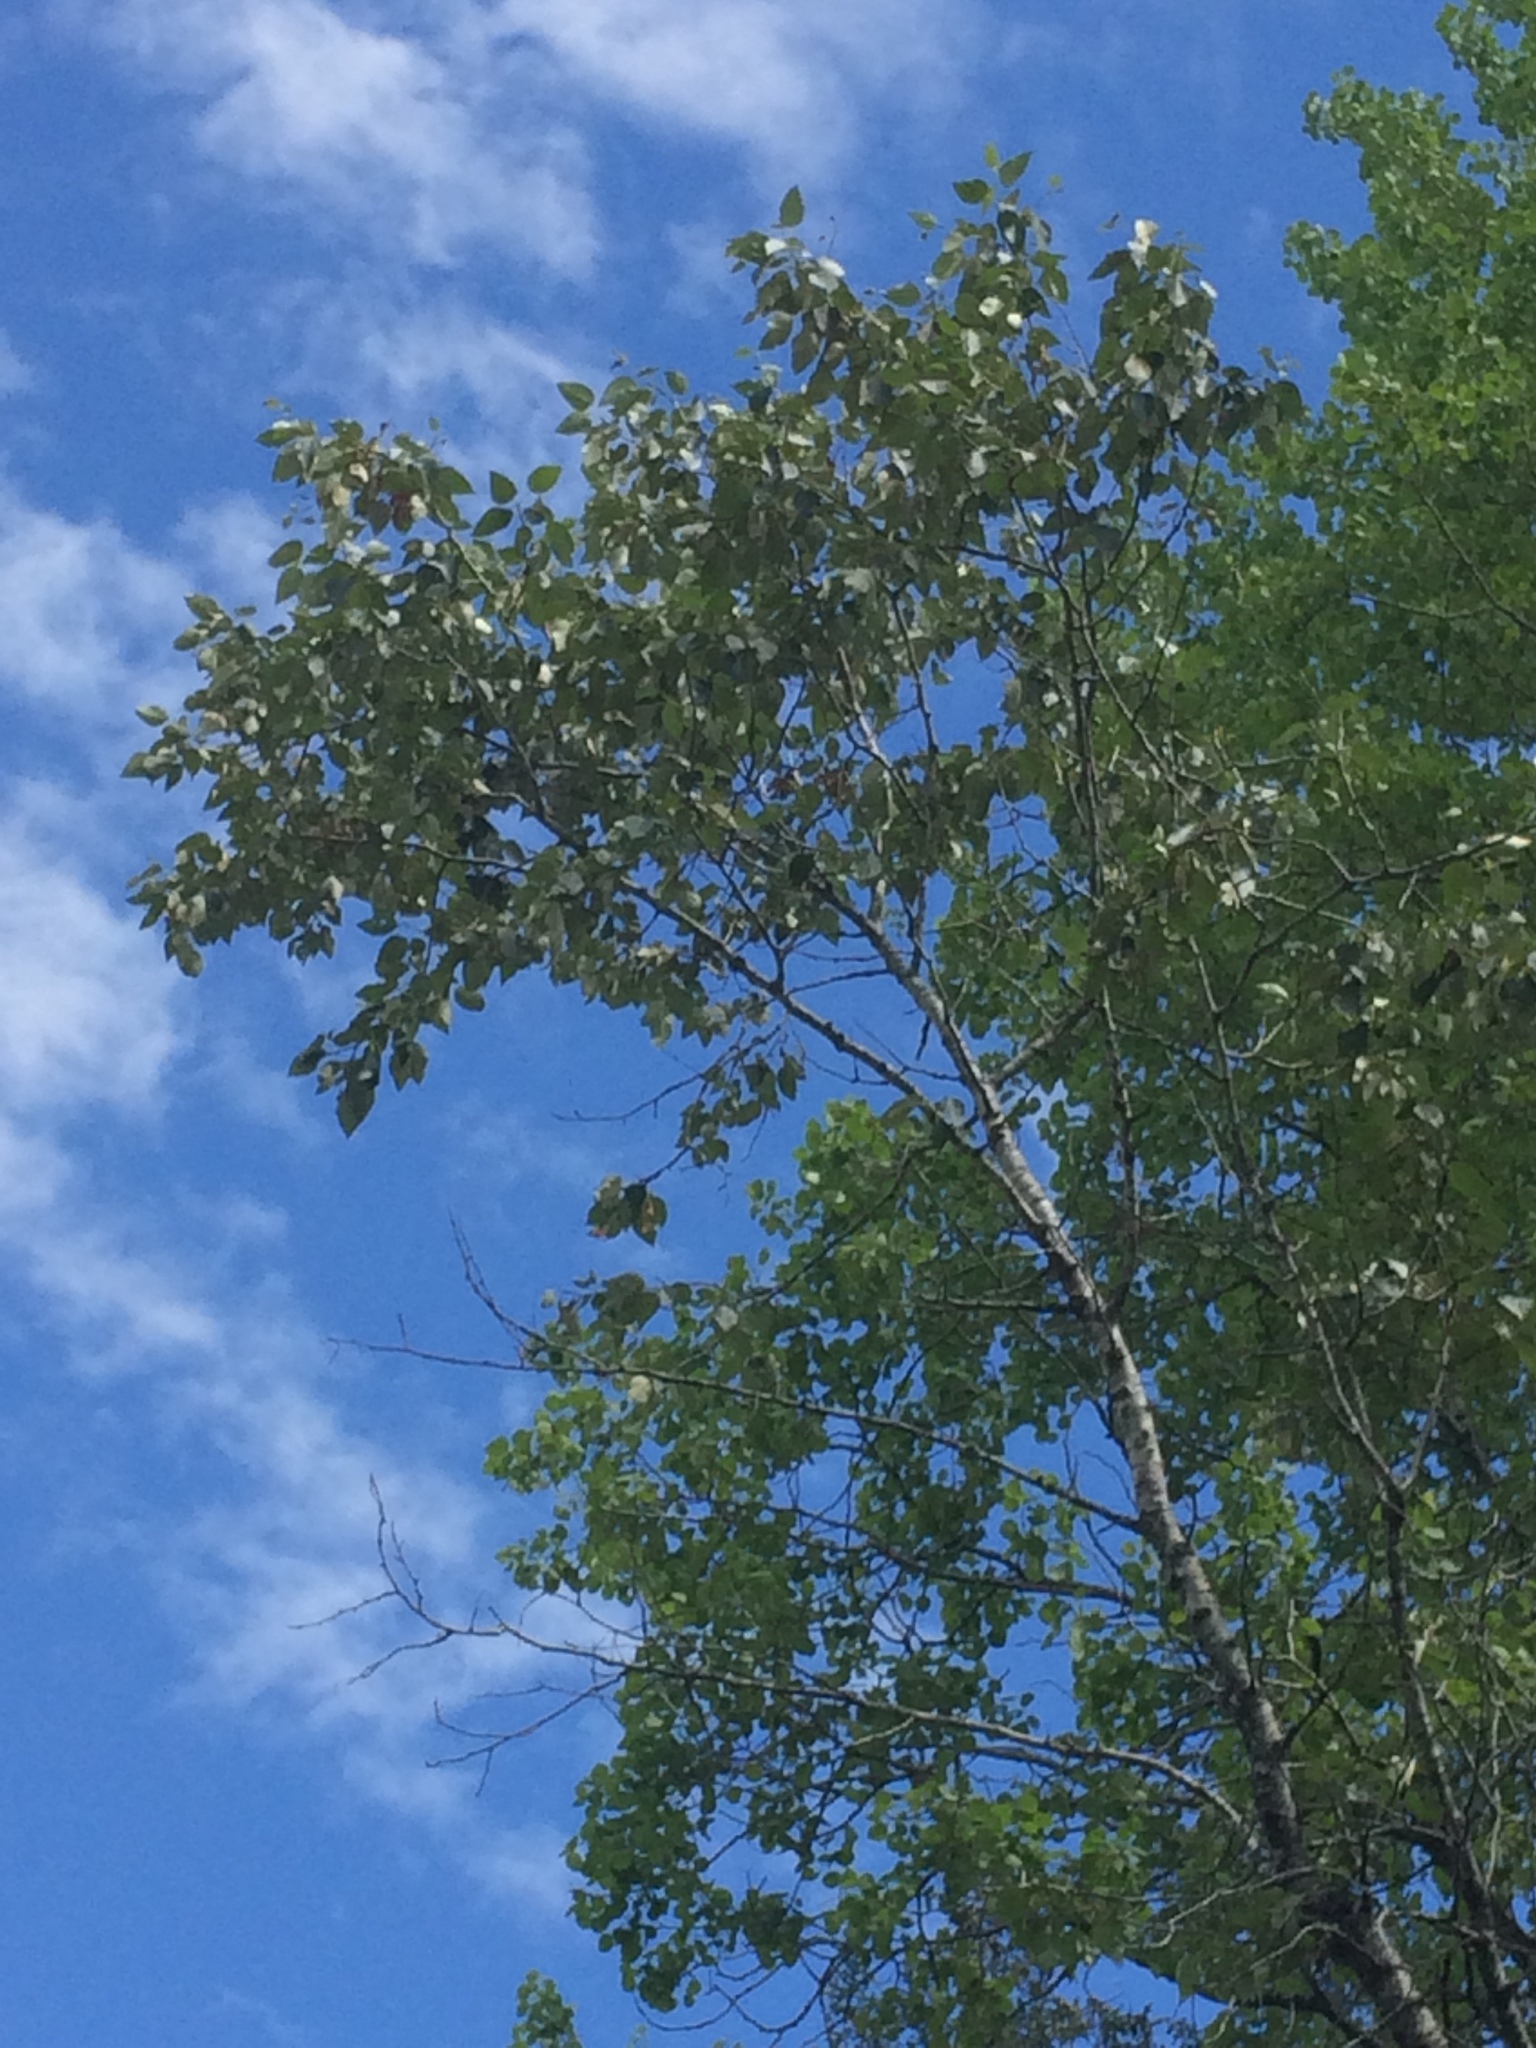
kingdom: Plantae
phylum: Tracheophyta
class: Magnoliopsida
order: Malpighiales
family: Salicaceae
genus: Populus
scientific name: Populus balsamifera
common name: Balsam poplar
